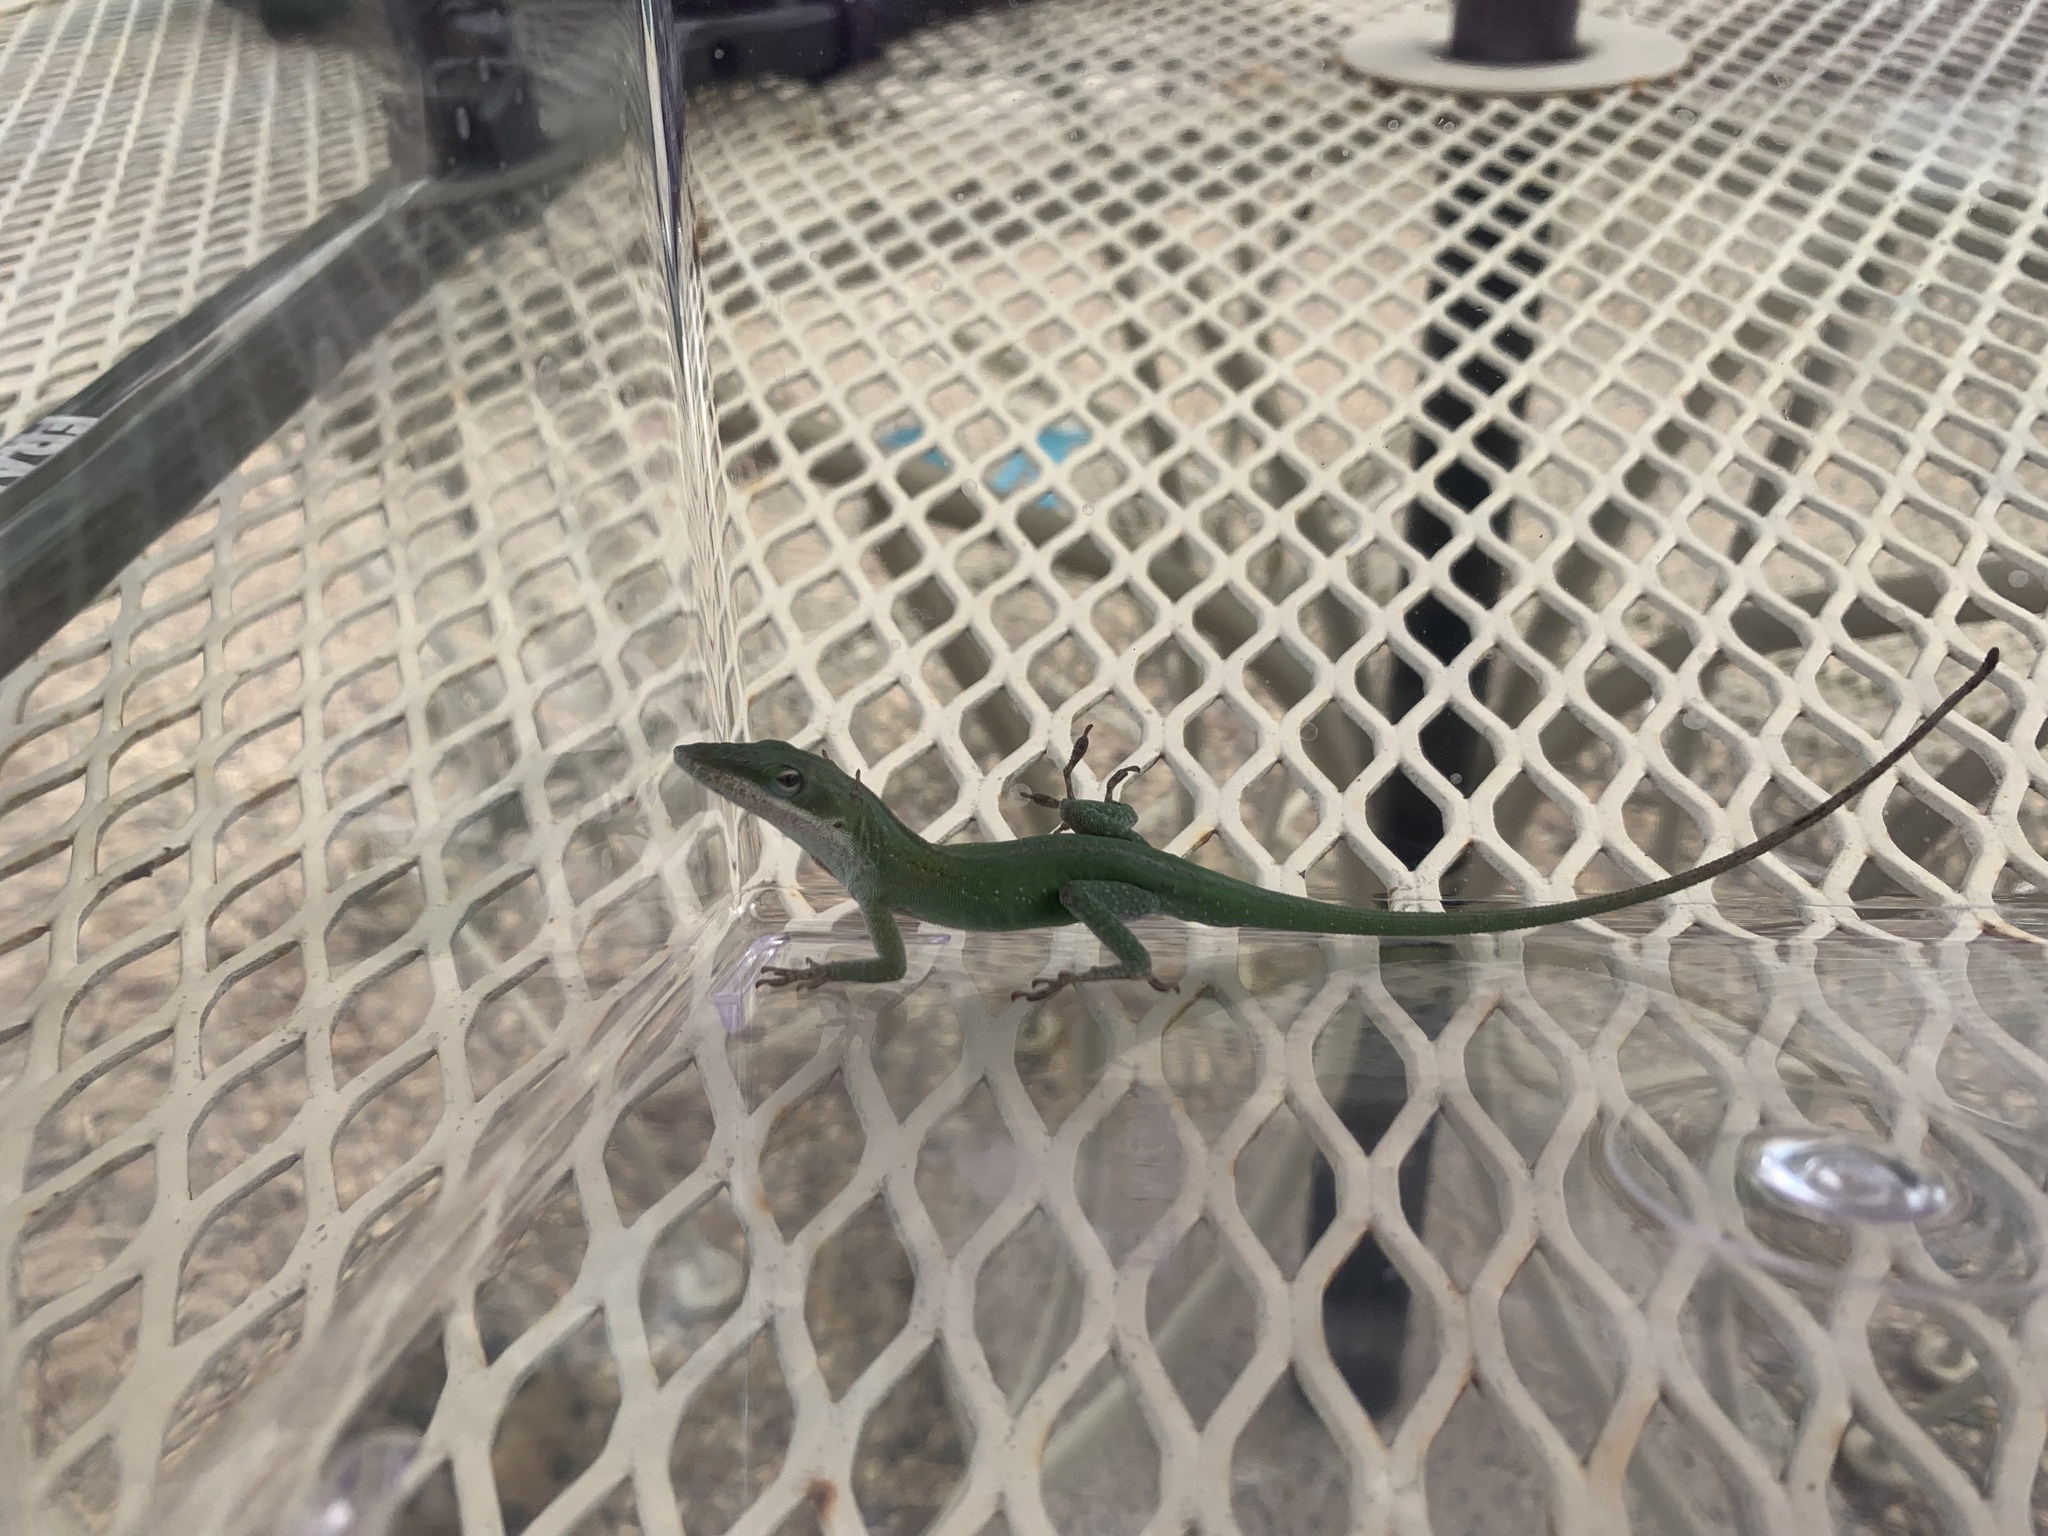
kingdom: Animalia
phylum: Chordata
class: Squamata
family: Dactyloidae
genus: Anolis
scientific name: Anolis carolinensis
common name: Green anole
